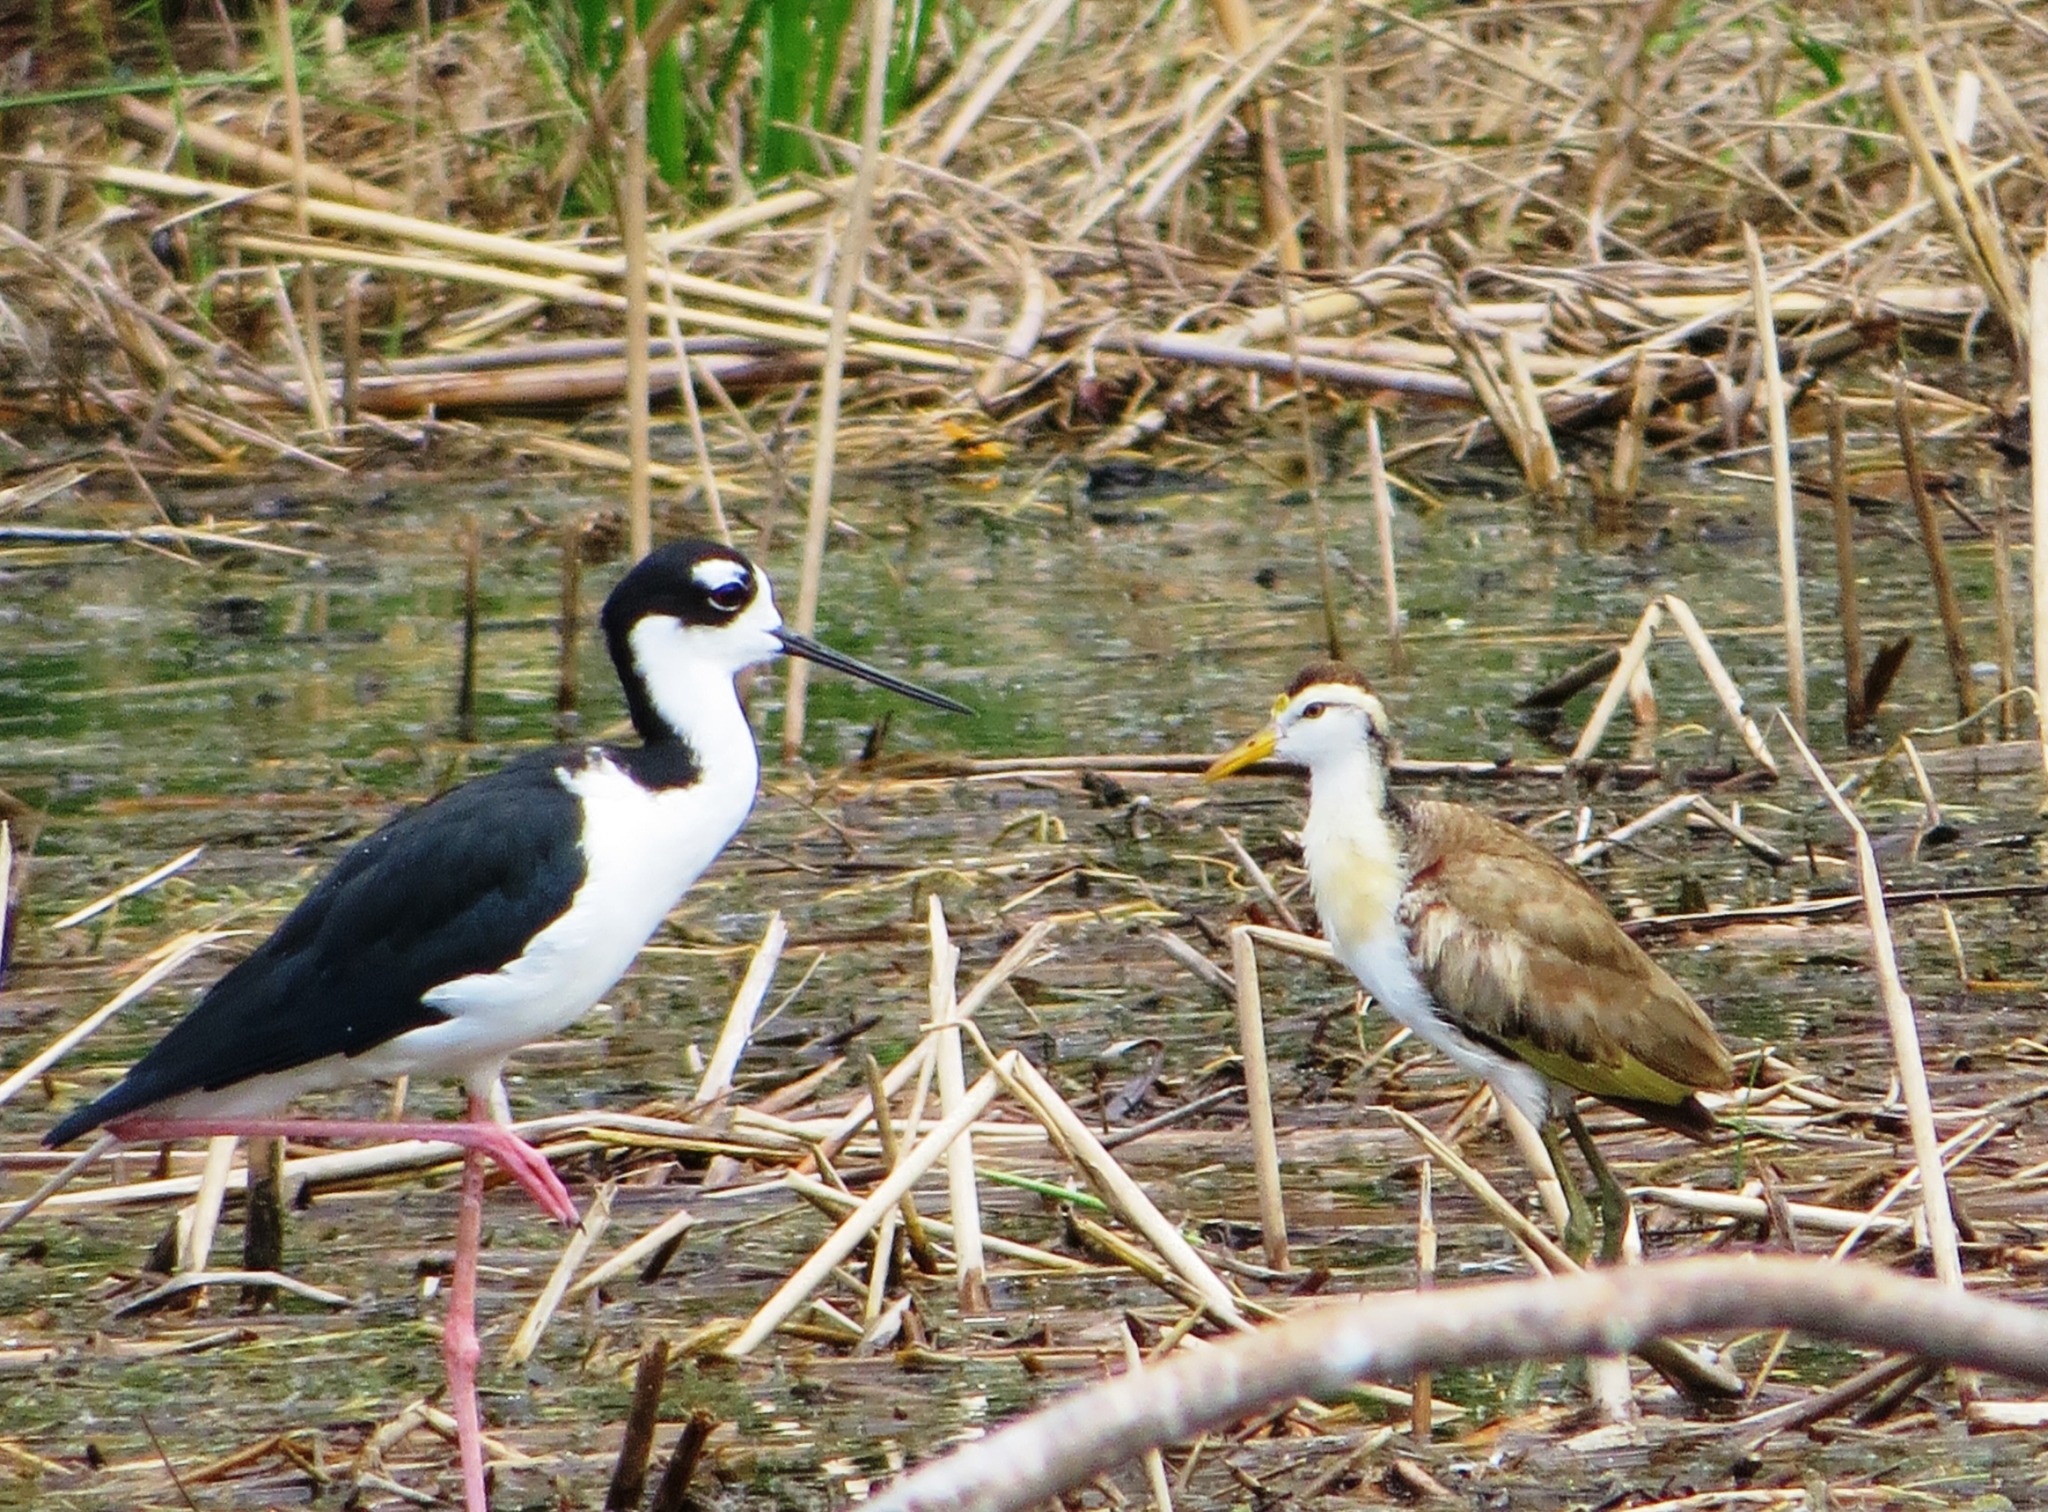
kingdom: Animalia
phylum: Chordata
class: Aves
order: Charadriiformes
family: Jacanidae
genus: Jacana
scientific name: Jacana spinosa
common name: Northern jacana
